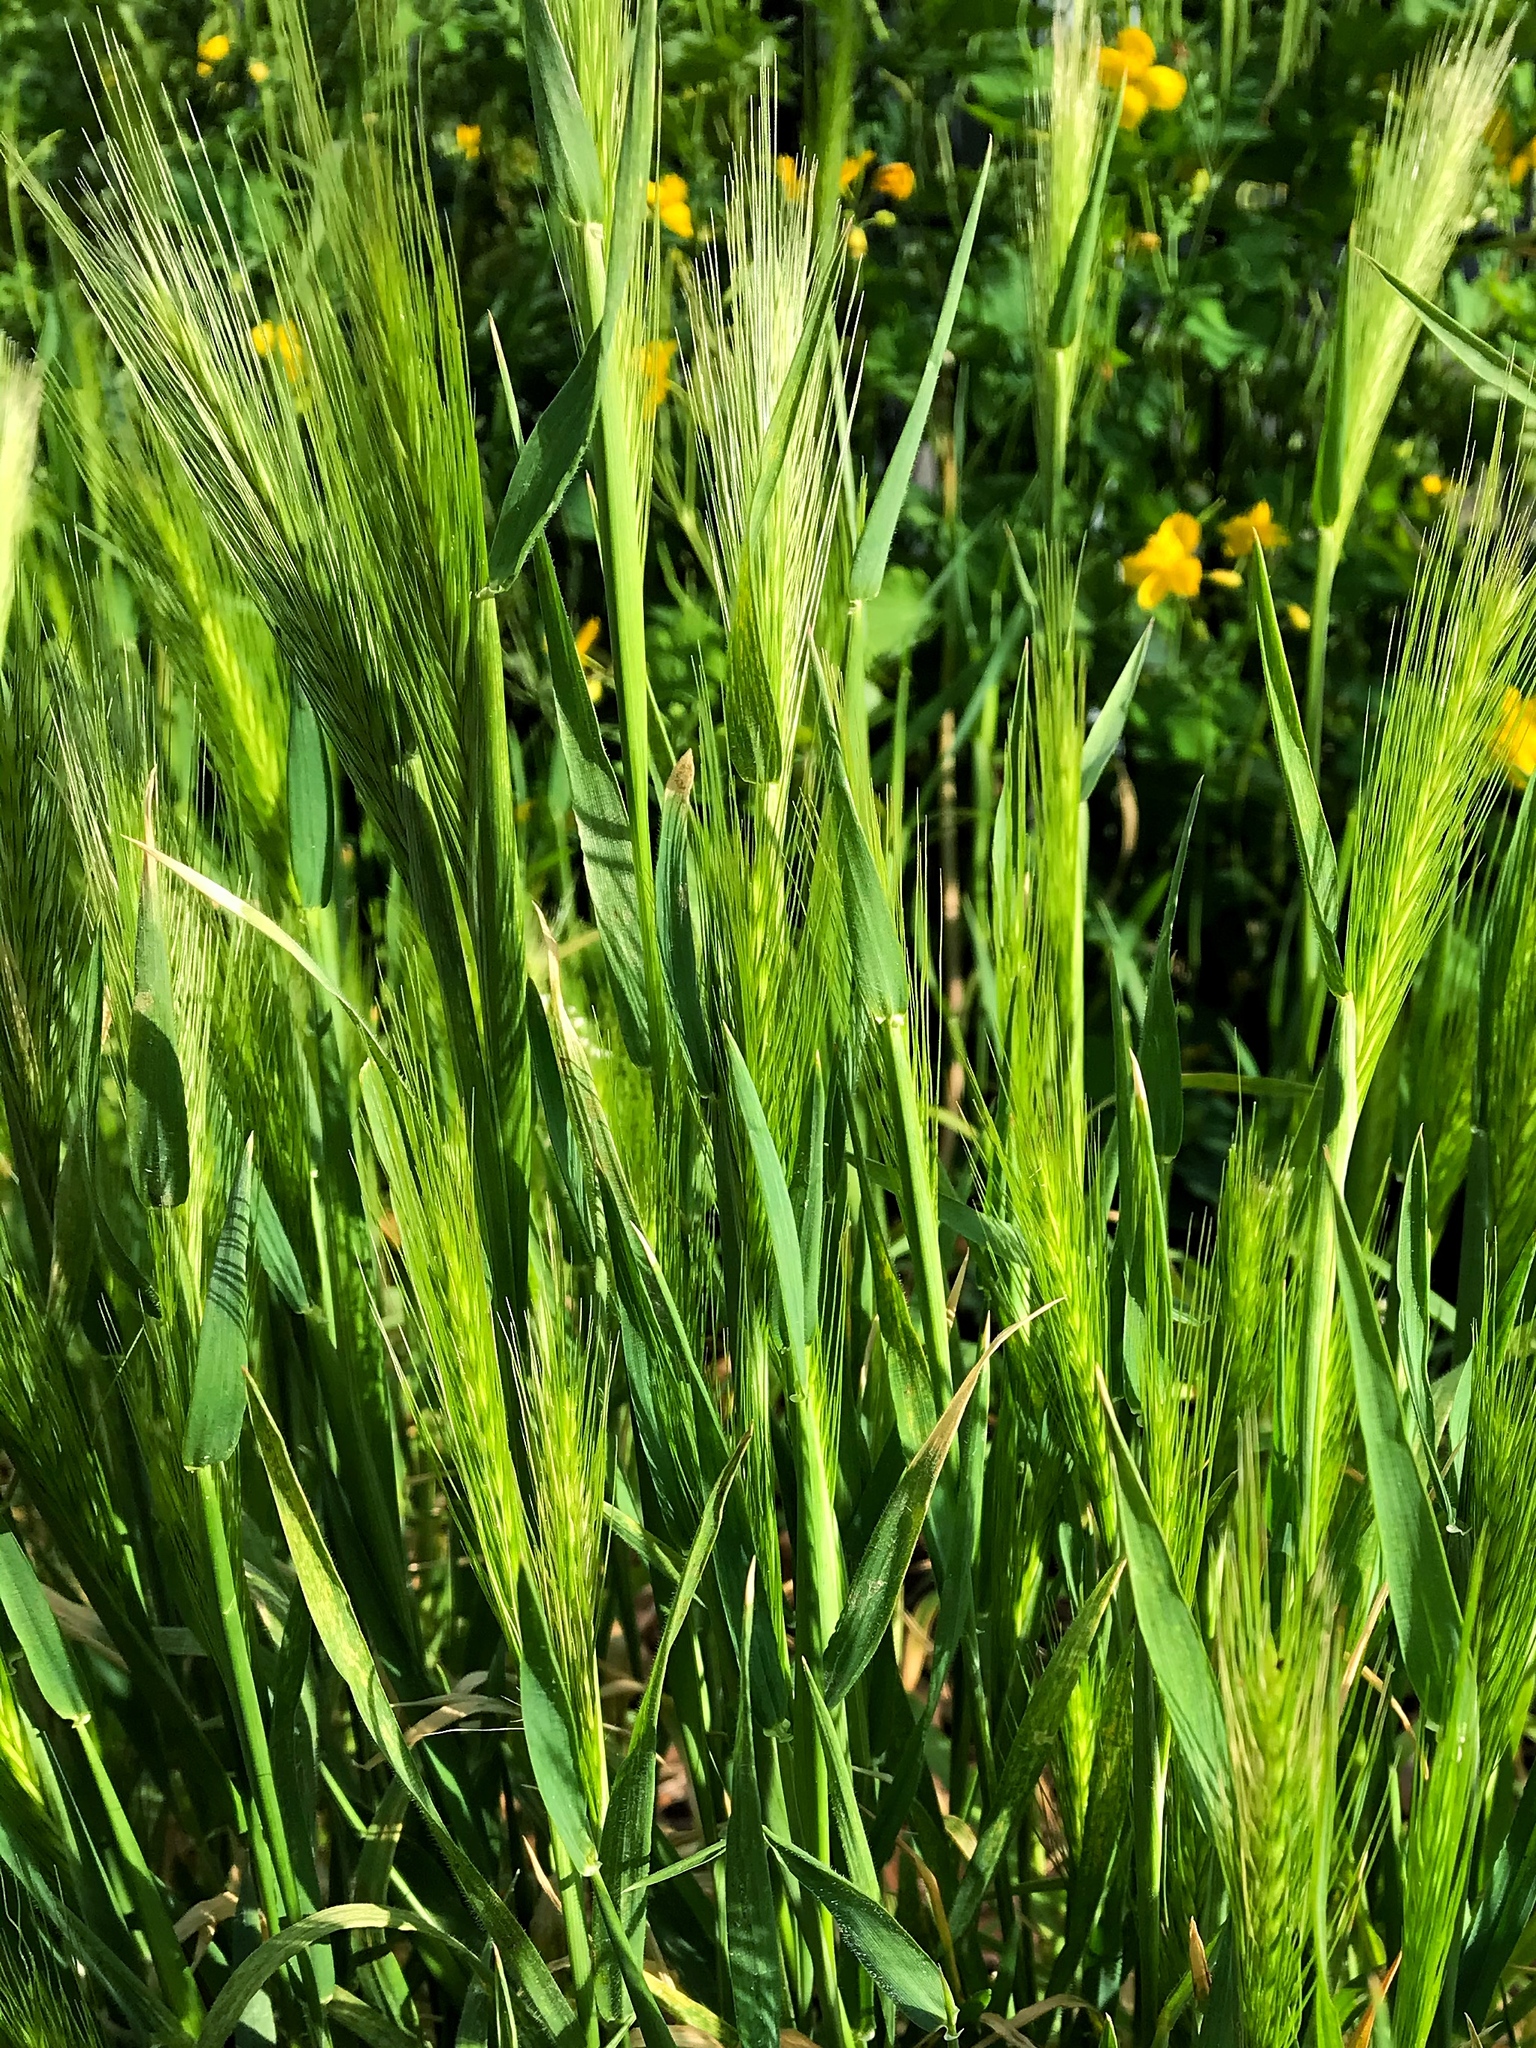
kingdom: Plantae
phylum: Tracheophyta
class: Liliopsida
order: Poales
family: Poaceae
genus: Hordeum
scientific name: Hordeum murinum
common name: Wall barley
